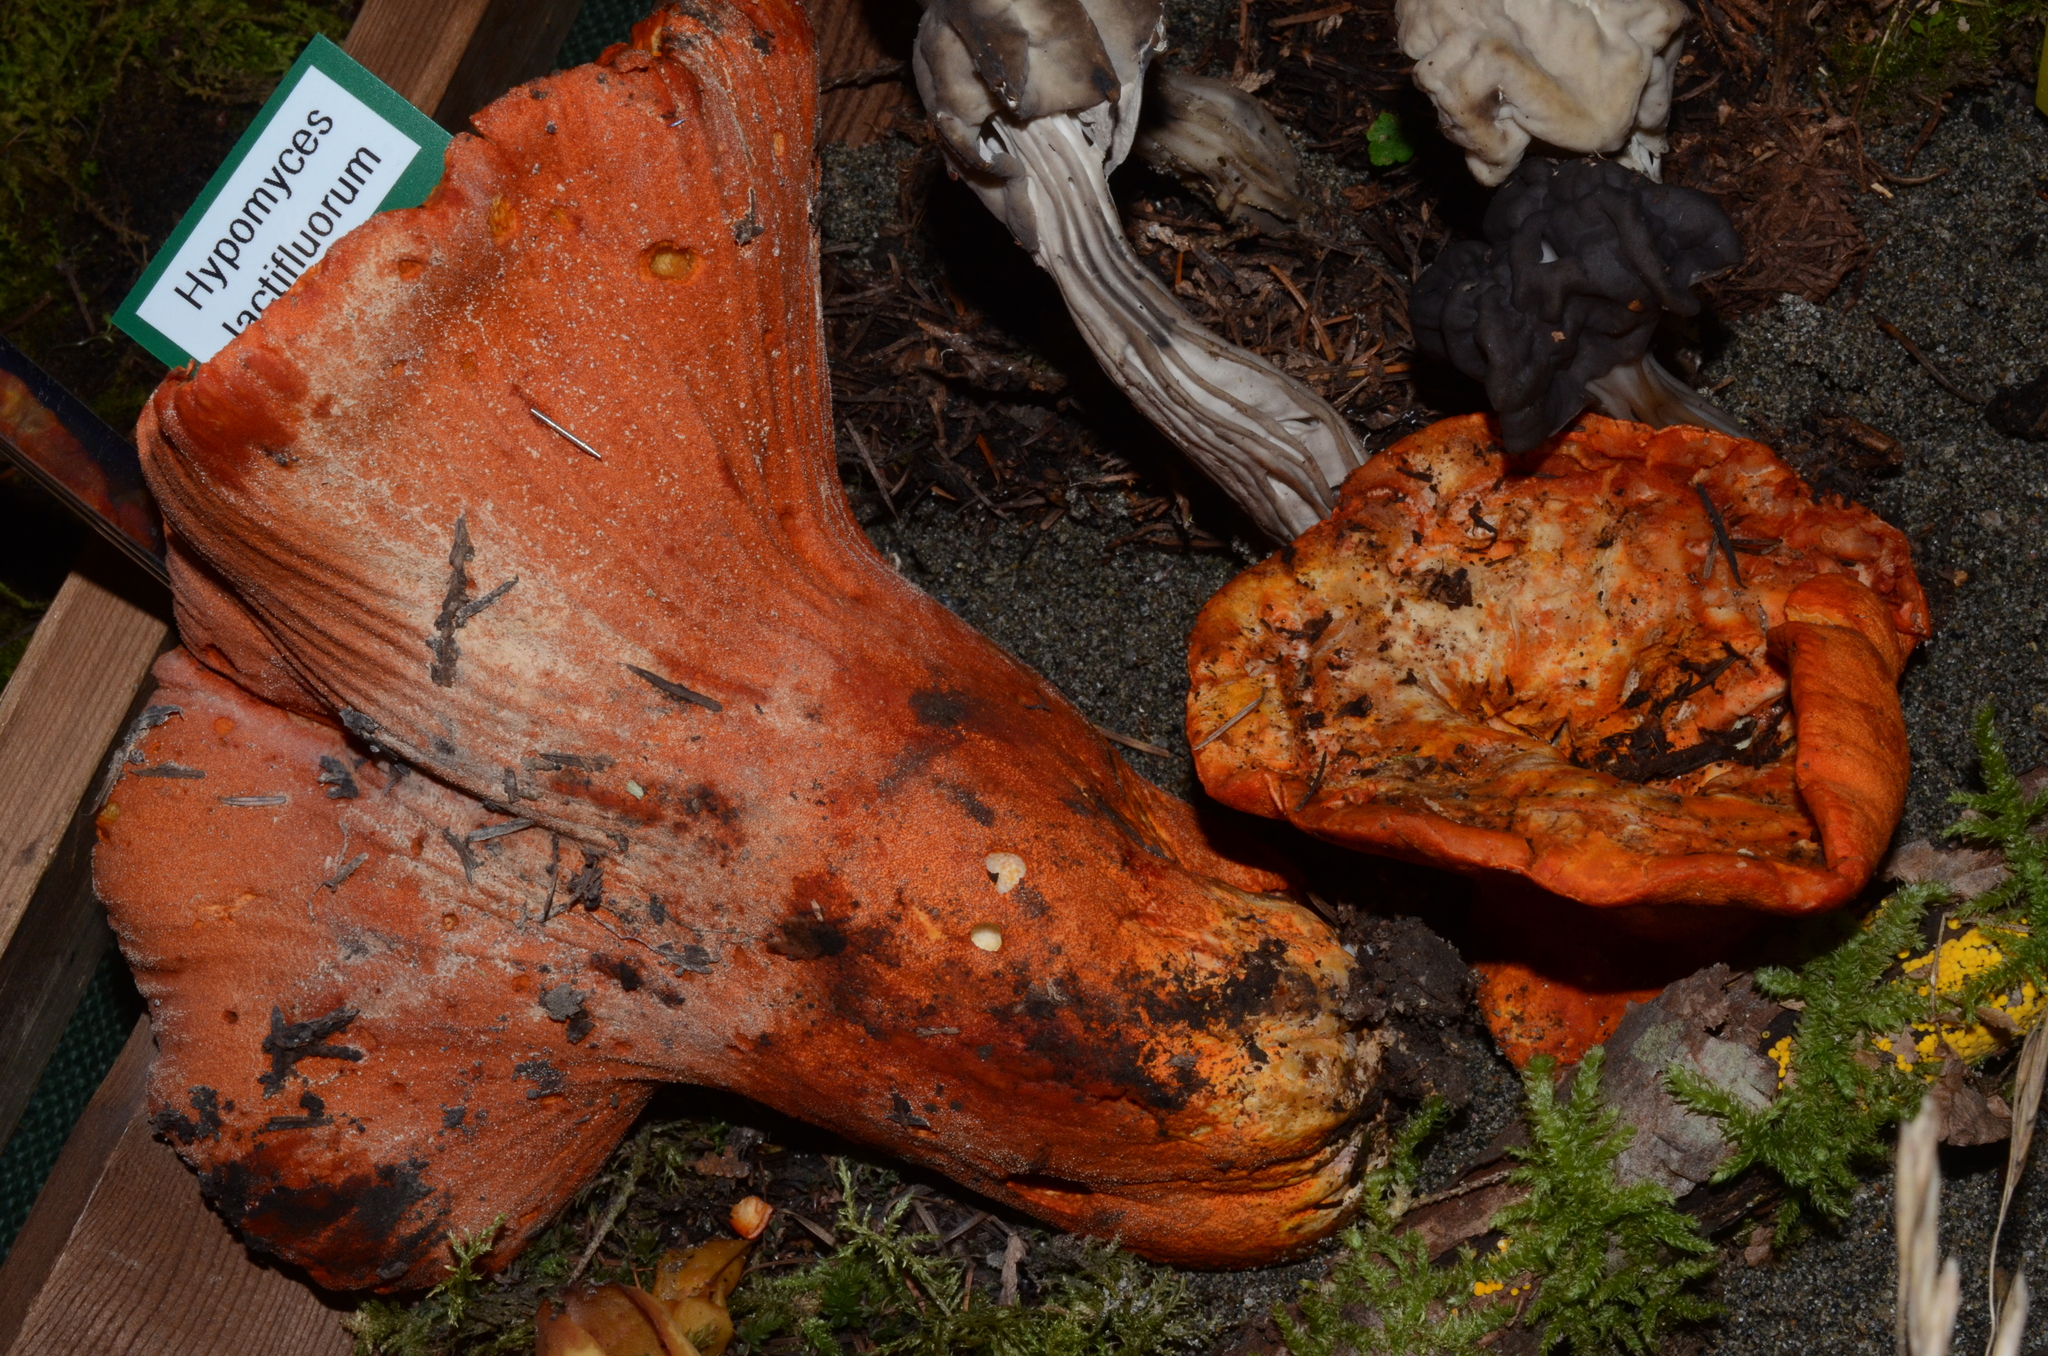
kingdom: Fungi
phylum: Ascomycota
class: Sordariomycetes
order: Hypocreales
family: Hypocreaceae
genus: Hypomyces
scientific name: Hypomyces lactifluorum
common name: Lobster mushroom
